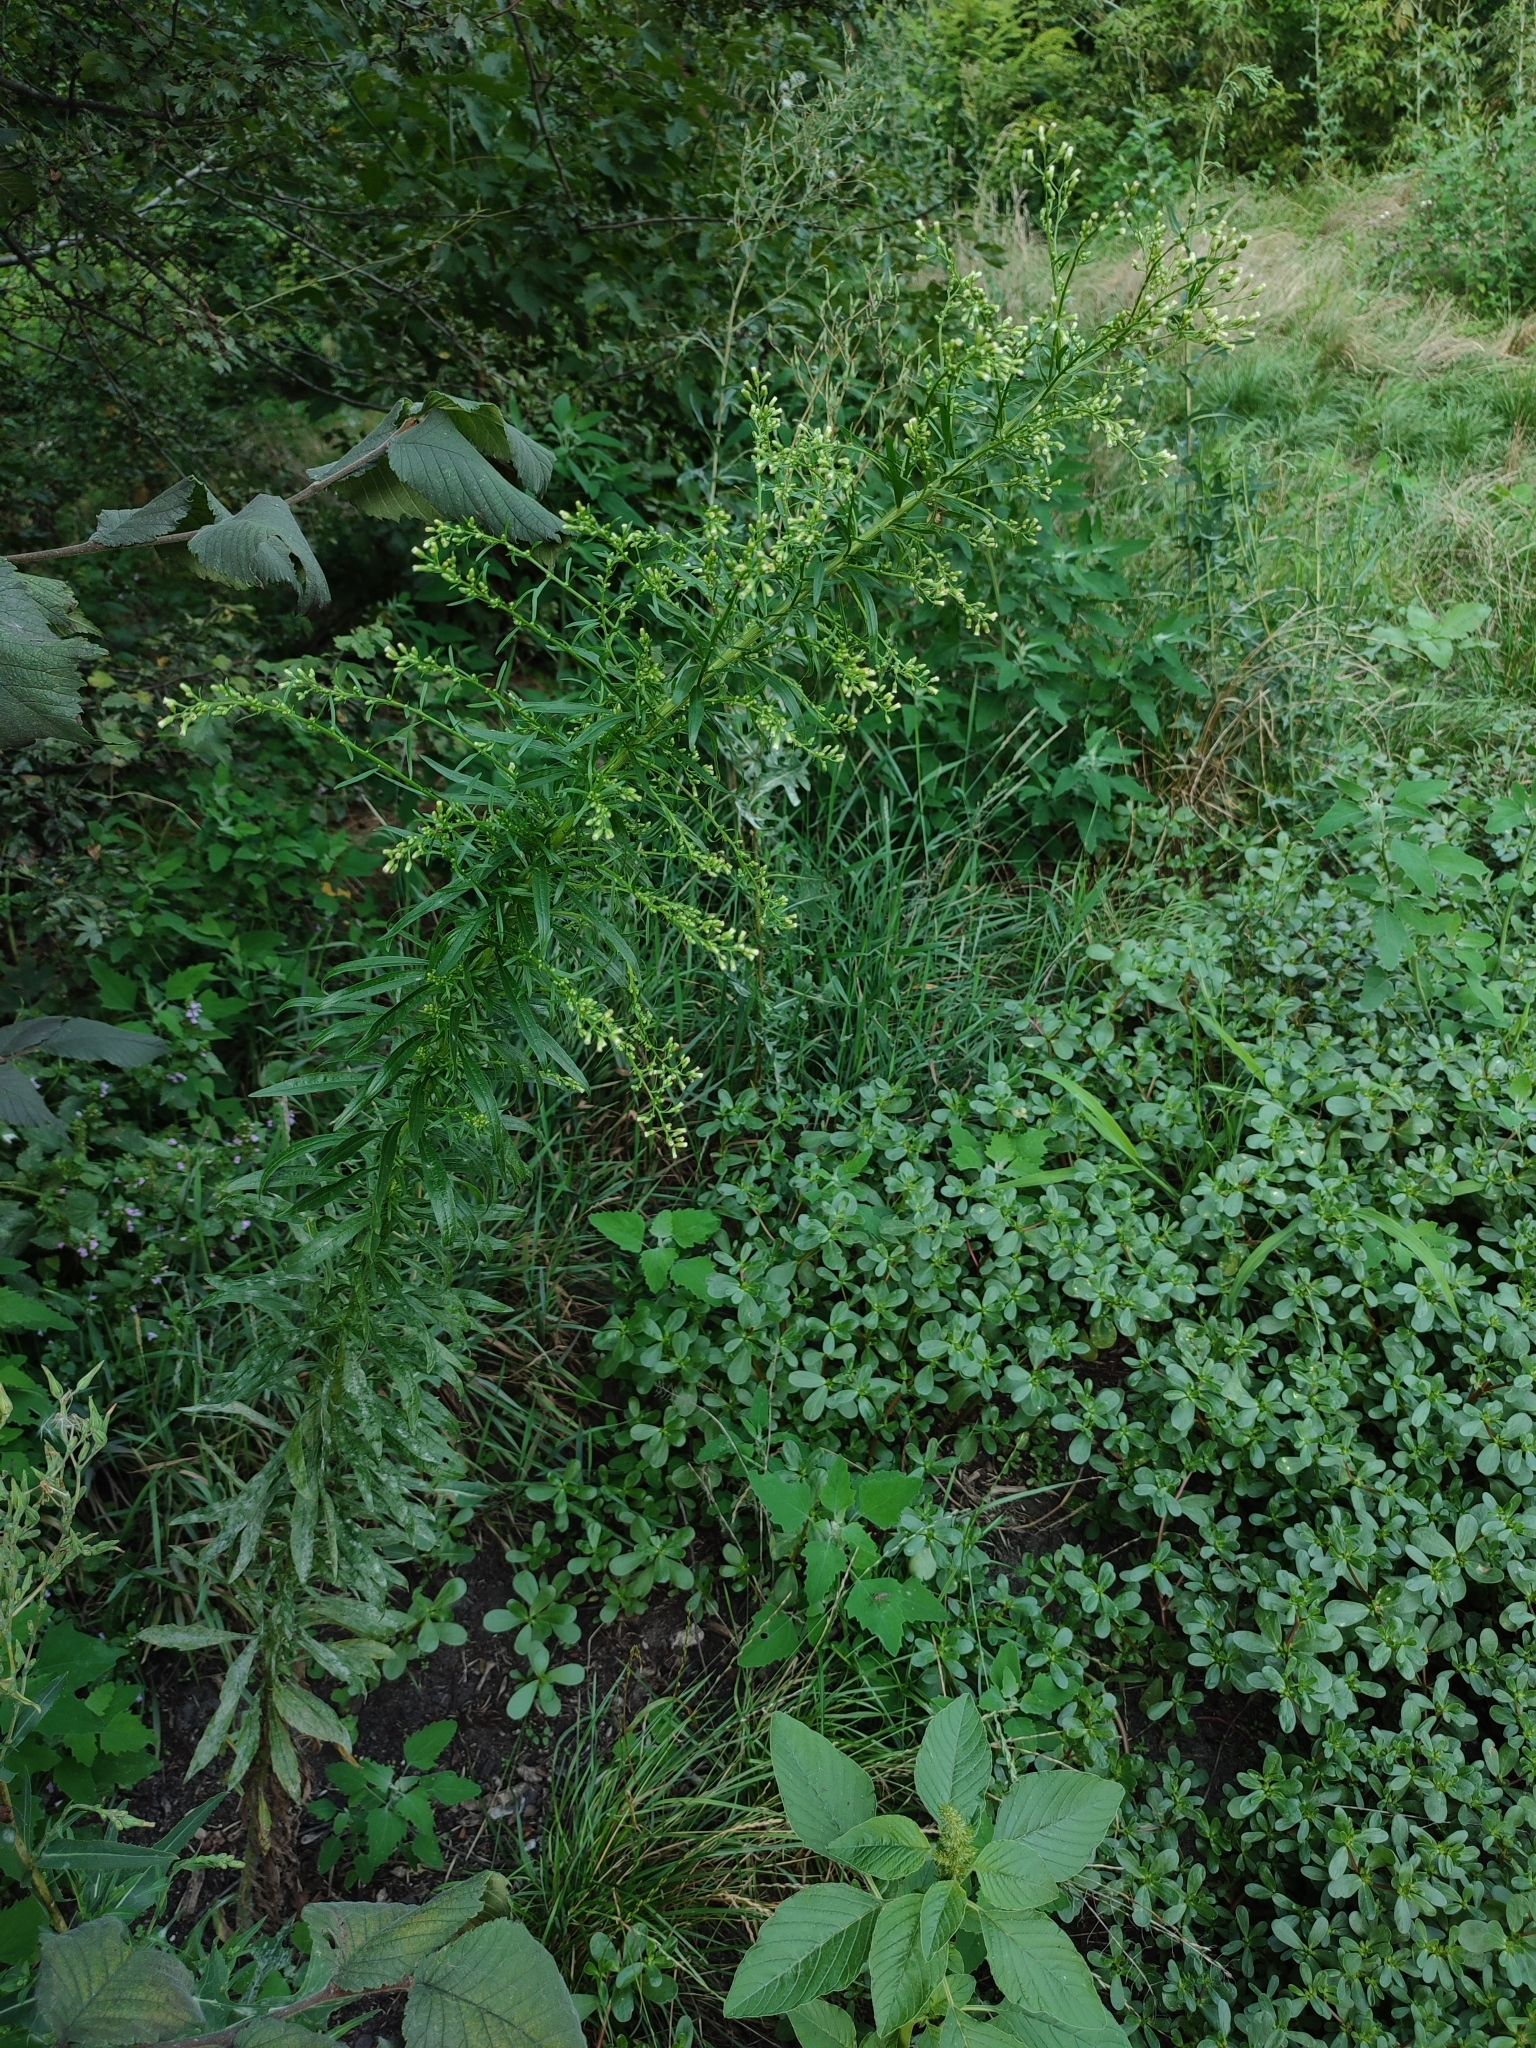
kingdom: Plantae
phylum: Tracheophyta
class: Magnoliopsida
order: Asterales
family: Asteraceae
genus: Erigeron
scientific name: Erigeron canadensis
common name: Canadian fleabane
